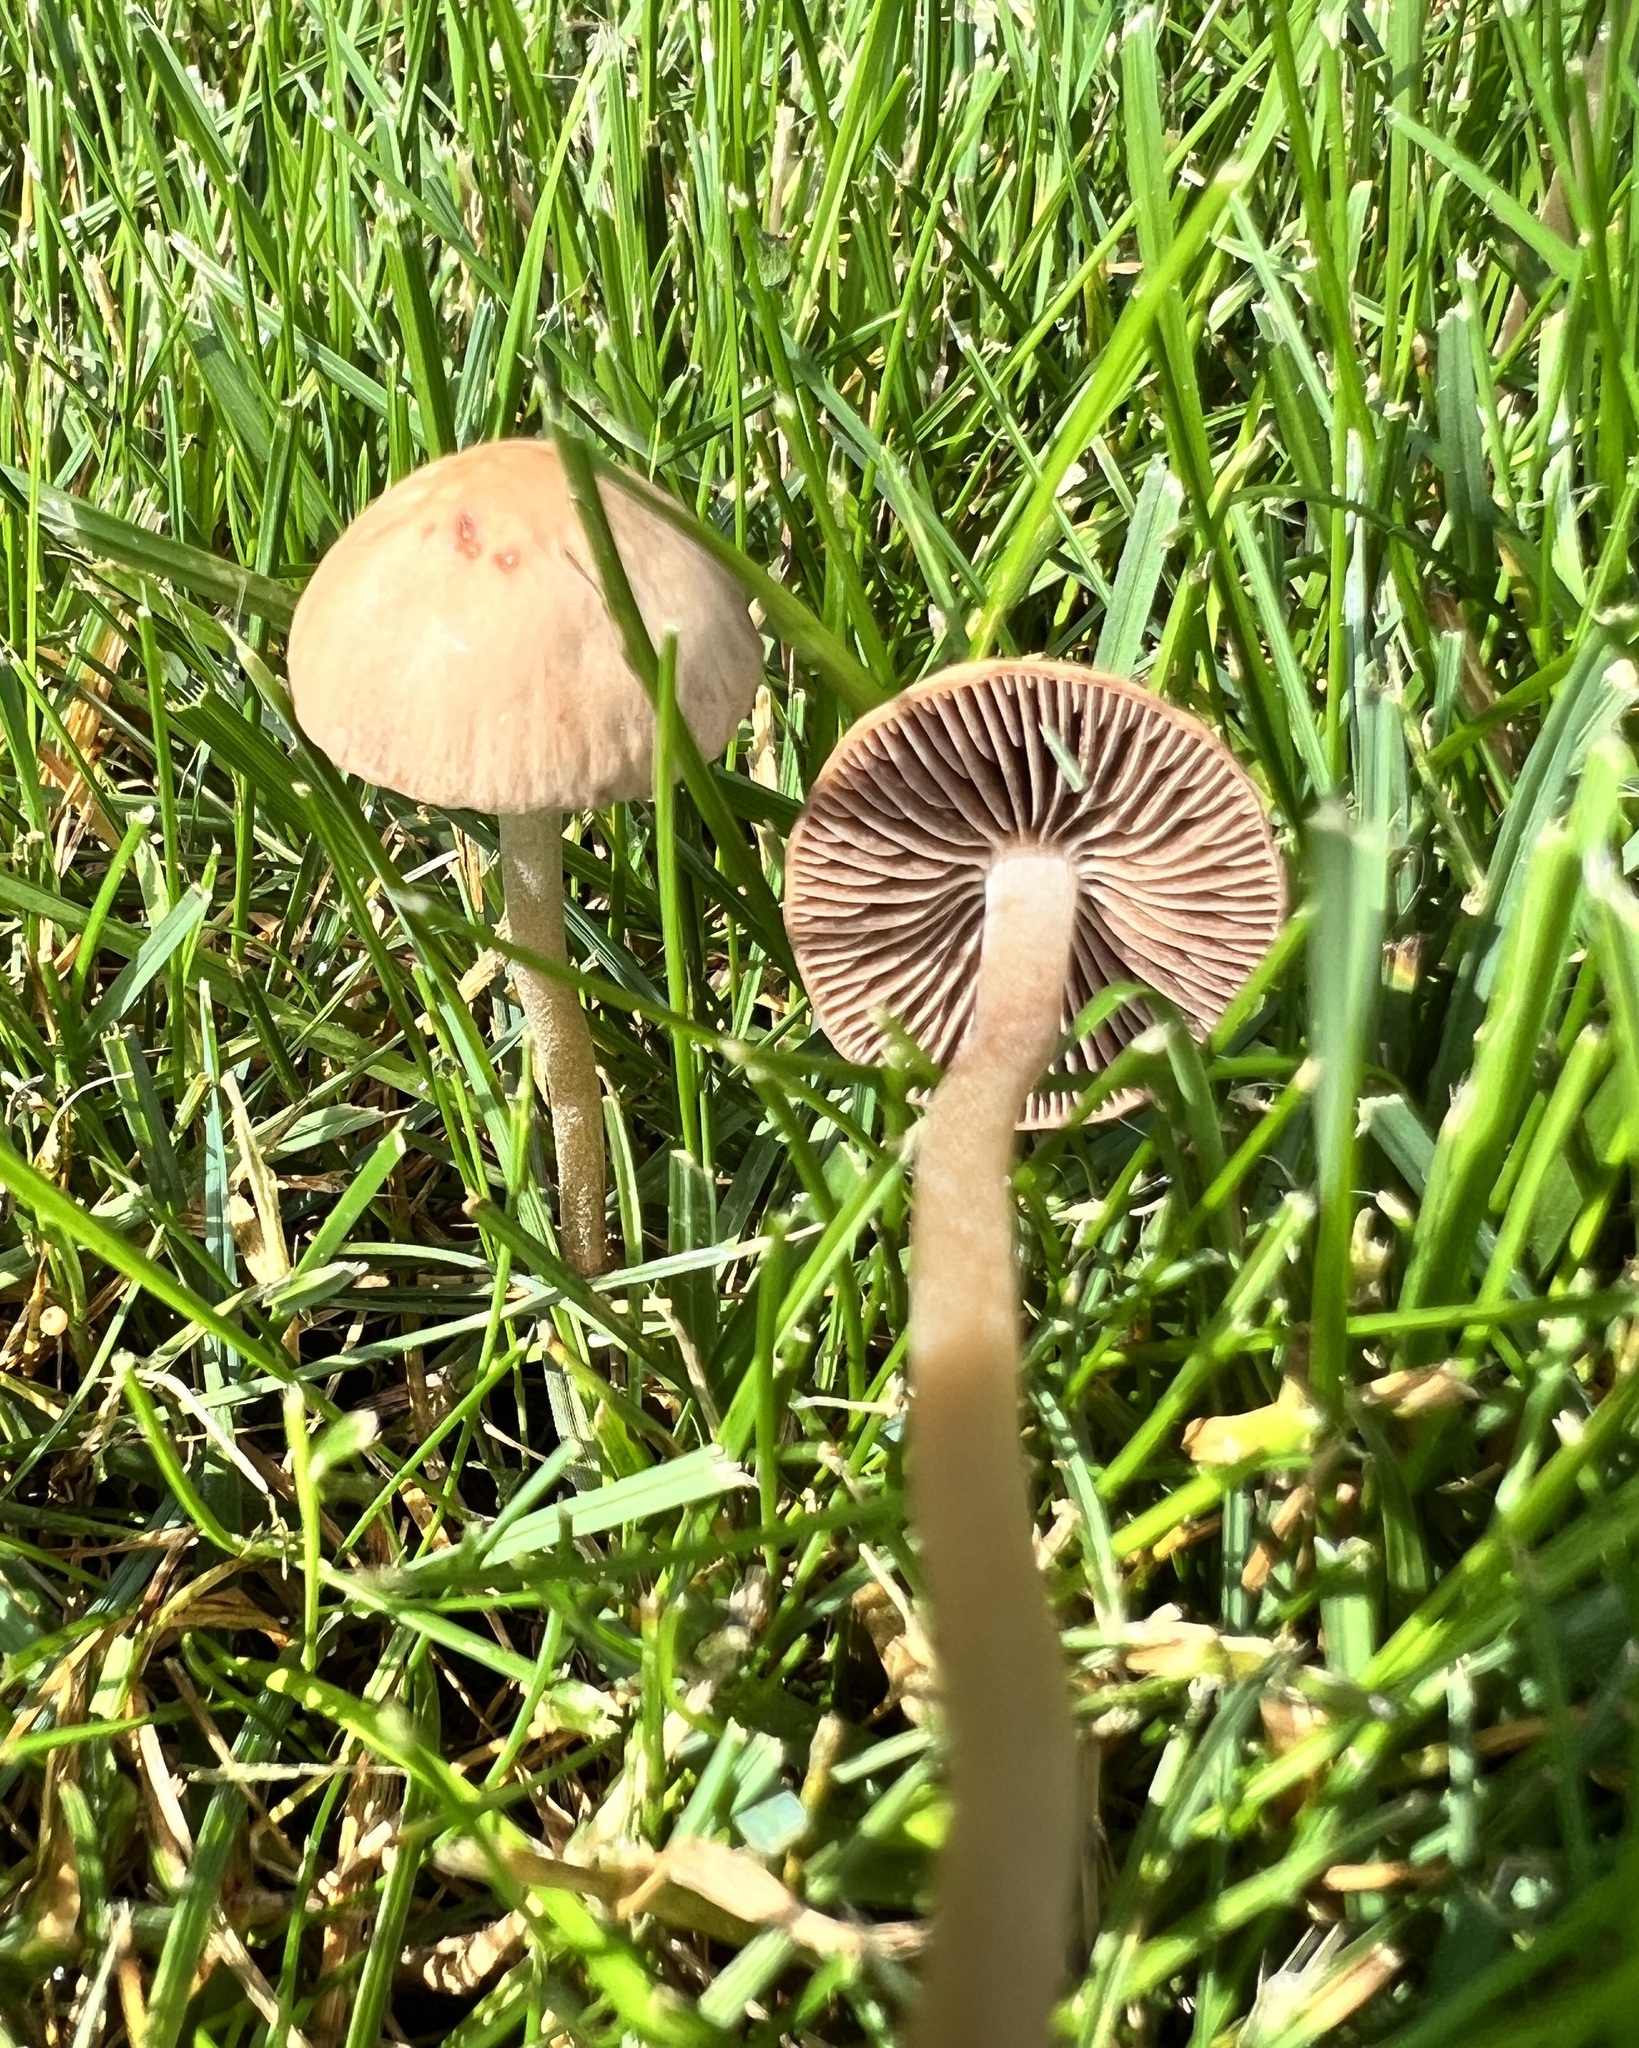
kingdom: Fungi
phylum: Basidiomycota
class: Agaricomycetes
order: Agaricales
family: Bolbitiaceae
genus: Panaeolina
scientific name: Panaeolina foenisecii
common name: Brown hay cap
